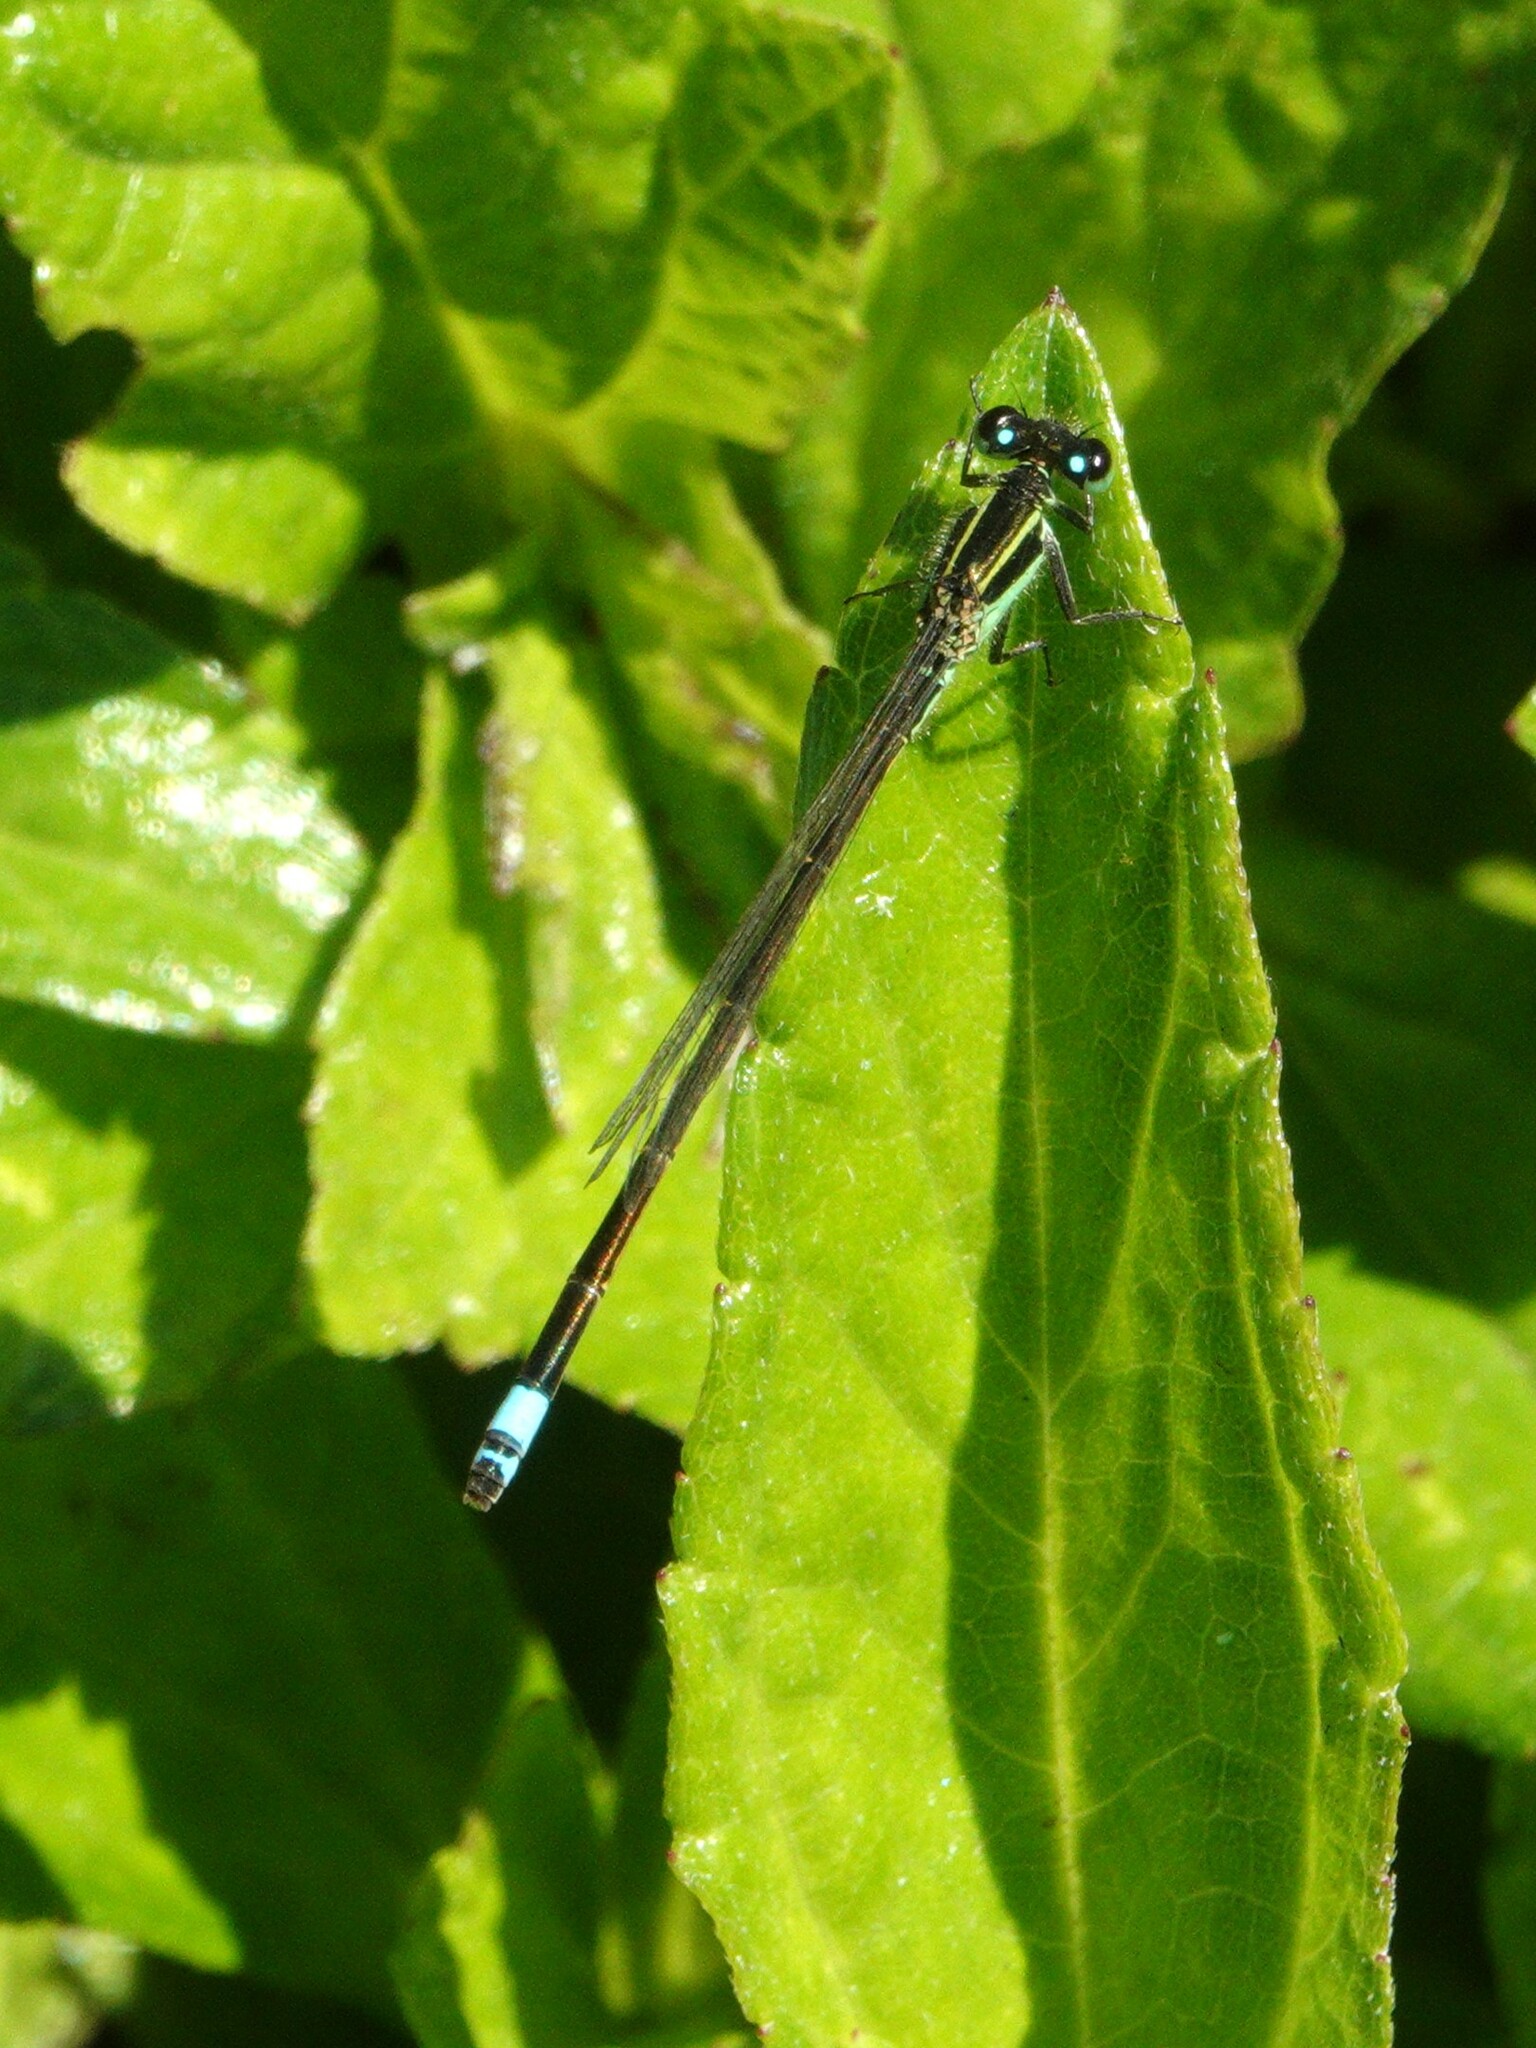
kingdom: Animalia
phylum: Arthropoda
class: Insecta
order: Odonata
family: Coenagrionidae
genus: Ischnura
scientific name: Ischnura ramburii
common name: Rambur's forktail
